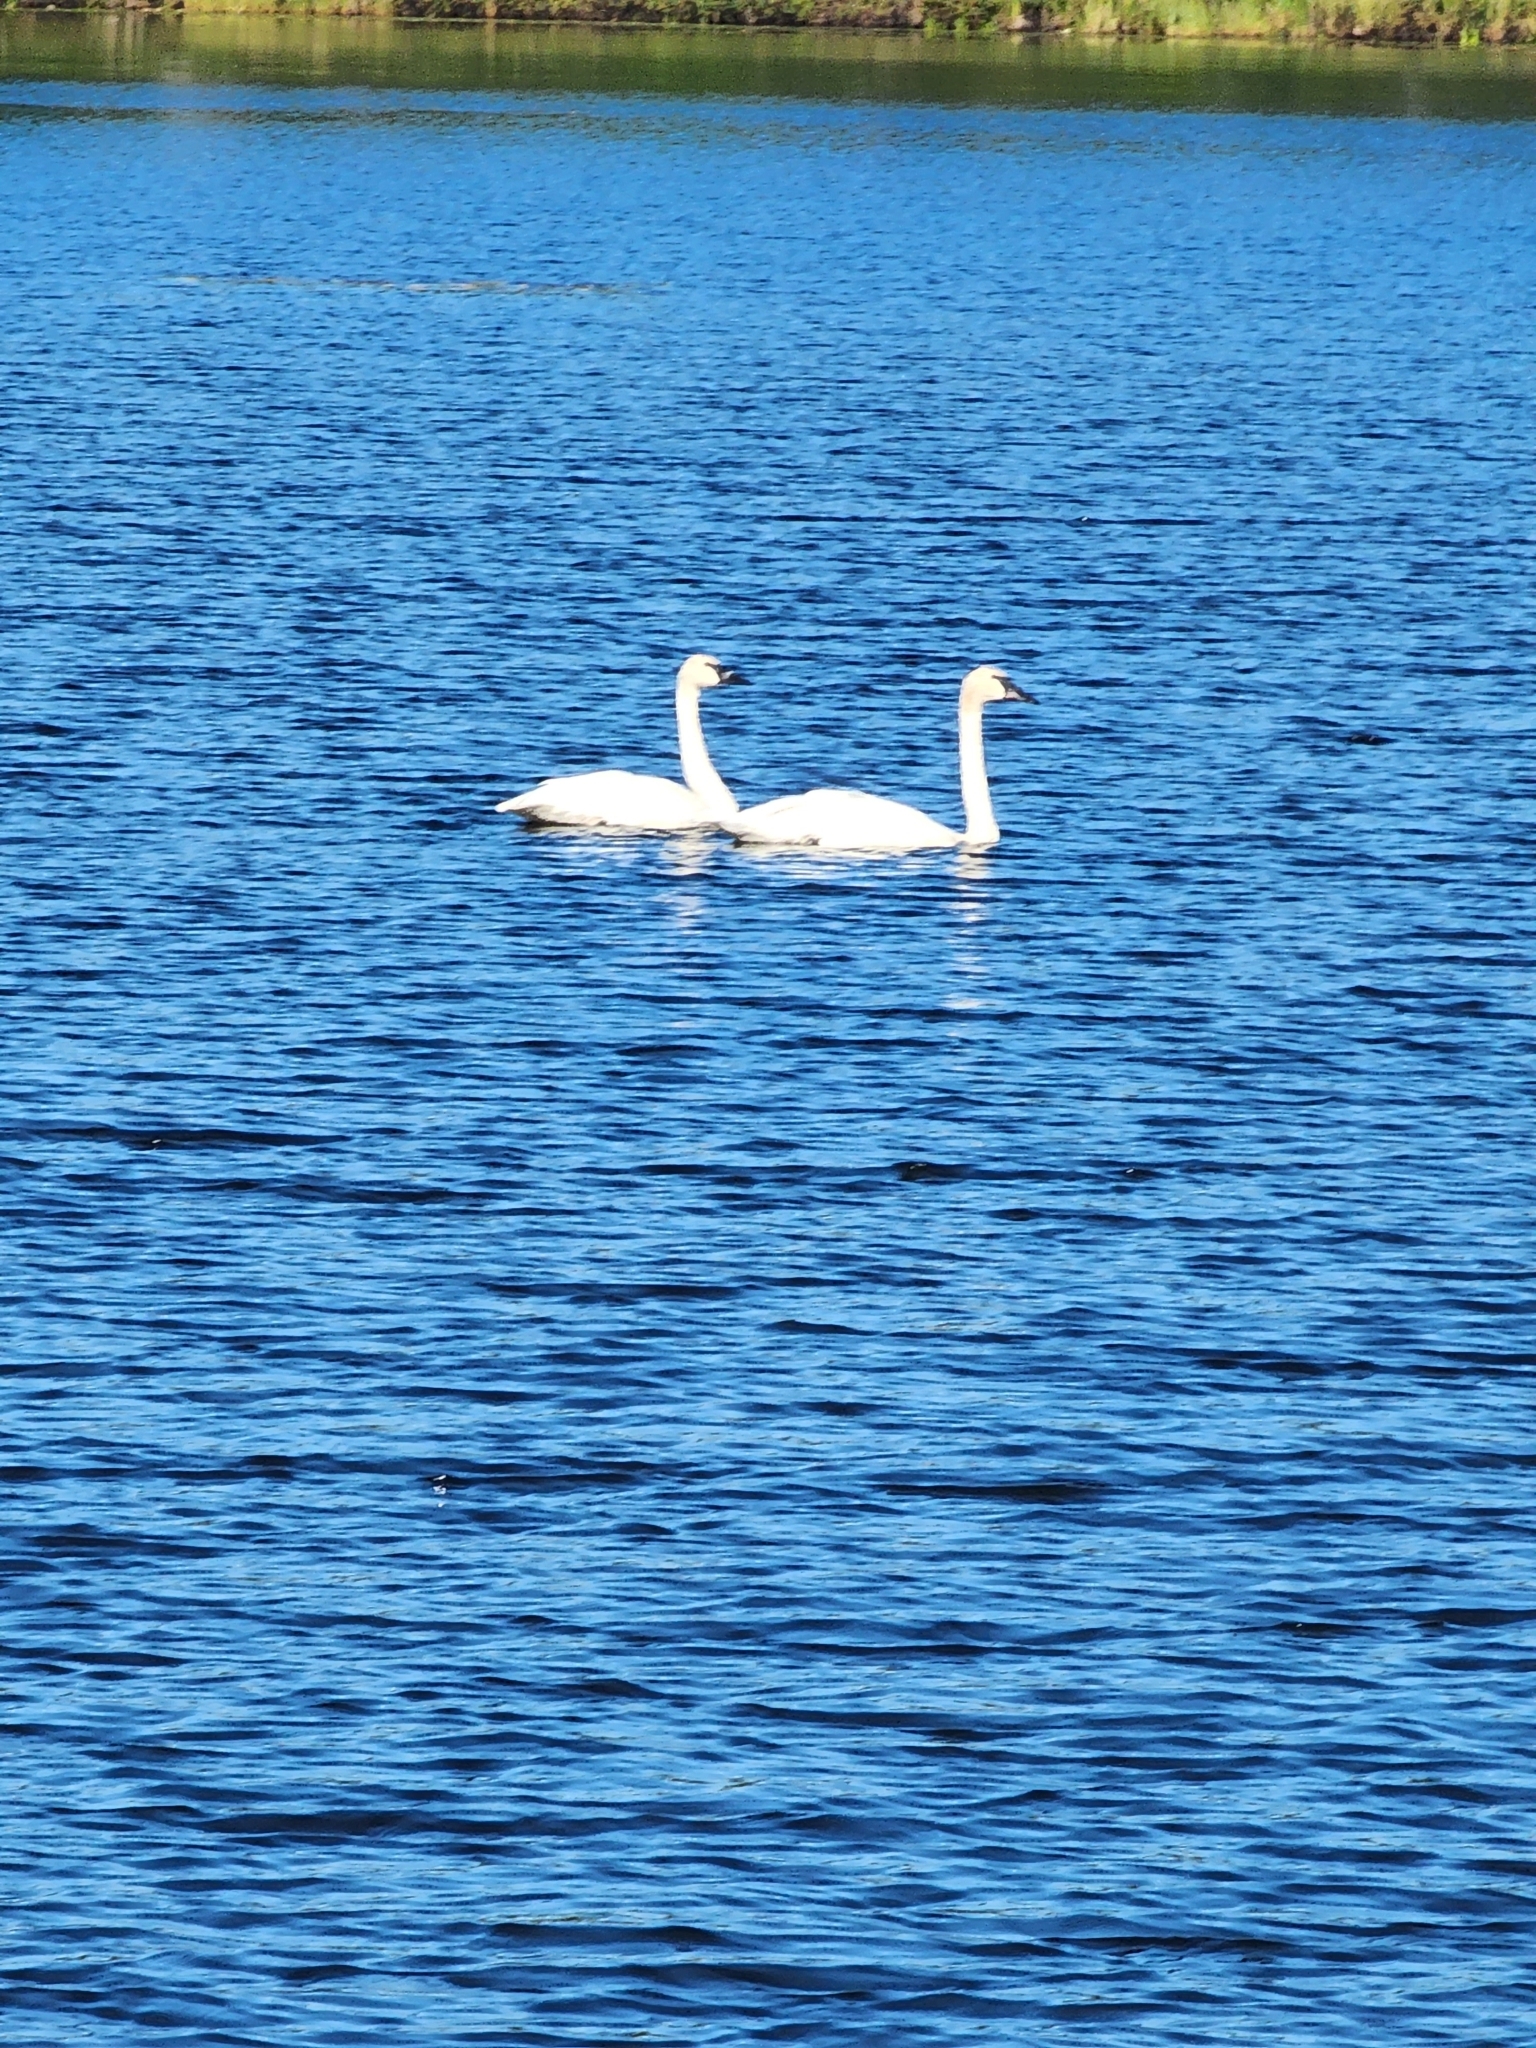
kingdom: Animalia
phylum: Chordata
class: Aves
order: Anseriformes
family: Anatidae
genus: Cygnus
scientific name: Cygnus buccinator
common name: Trumpeter swan
